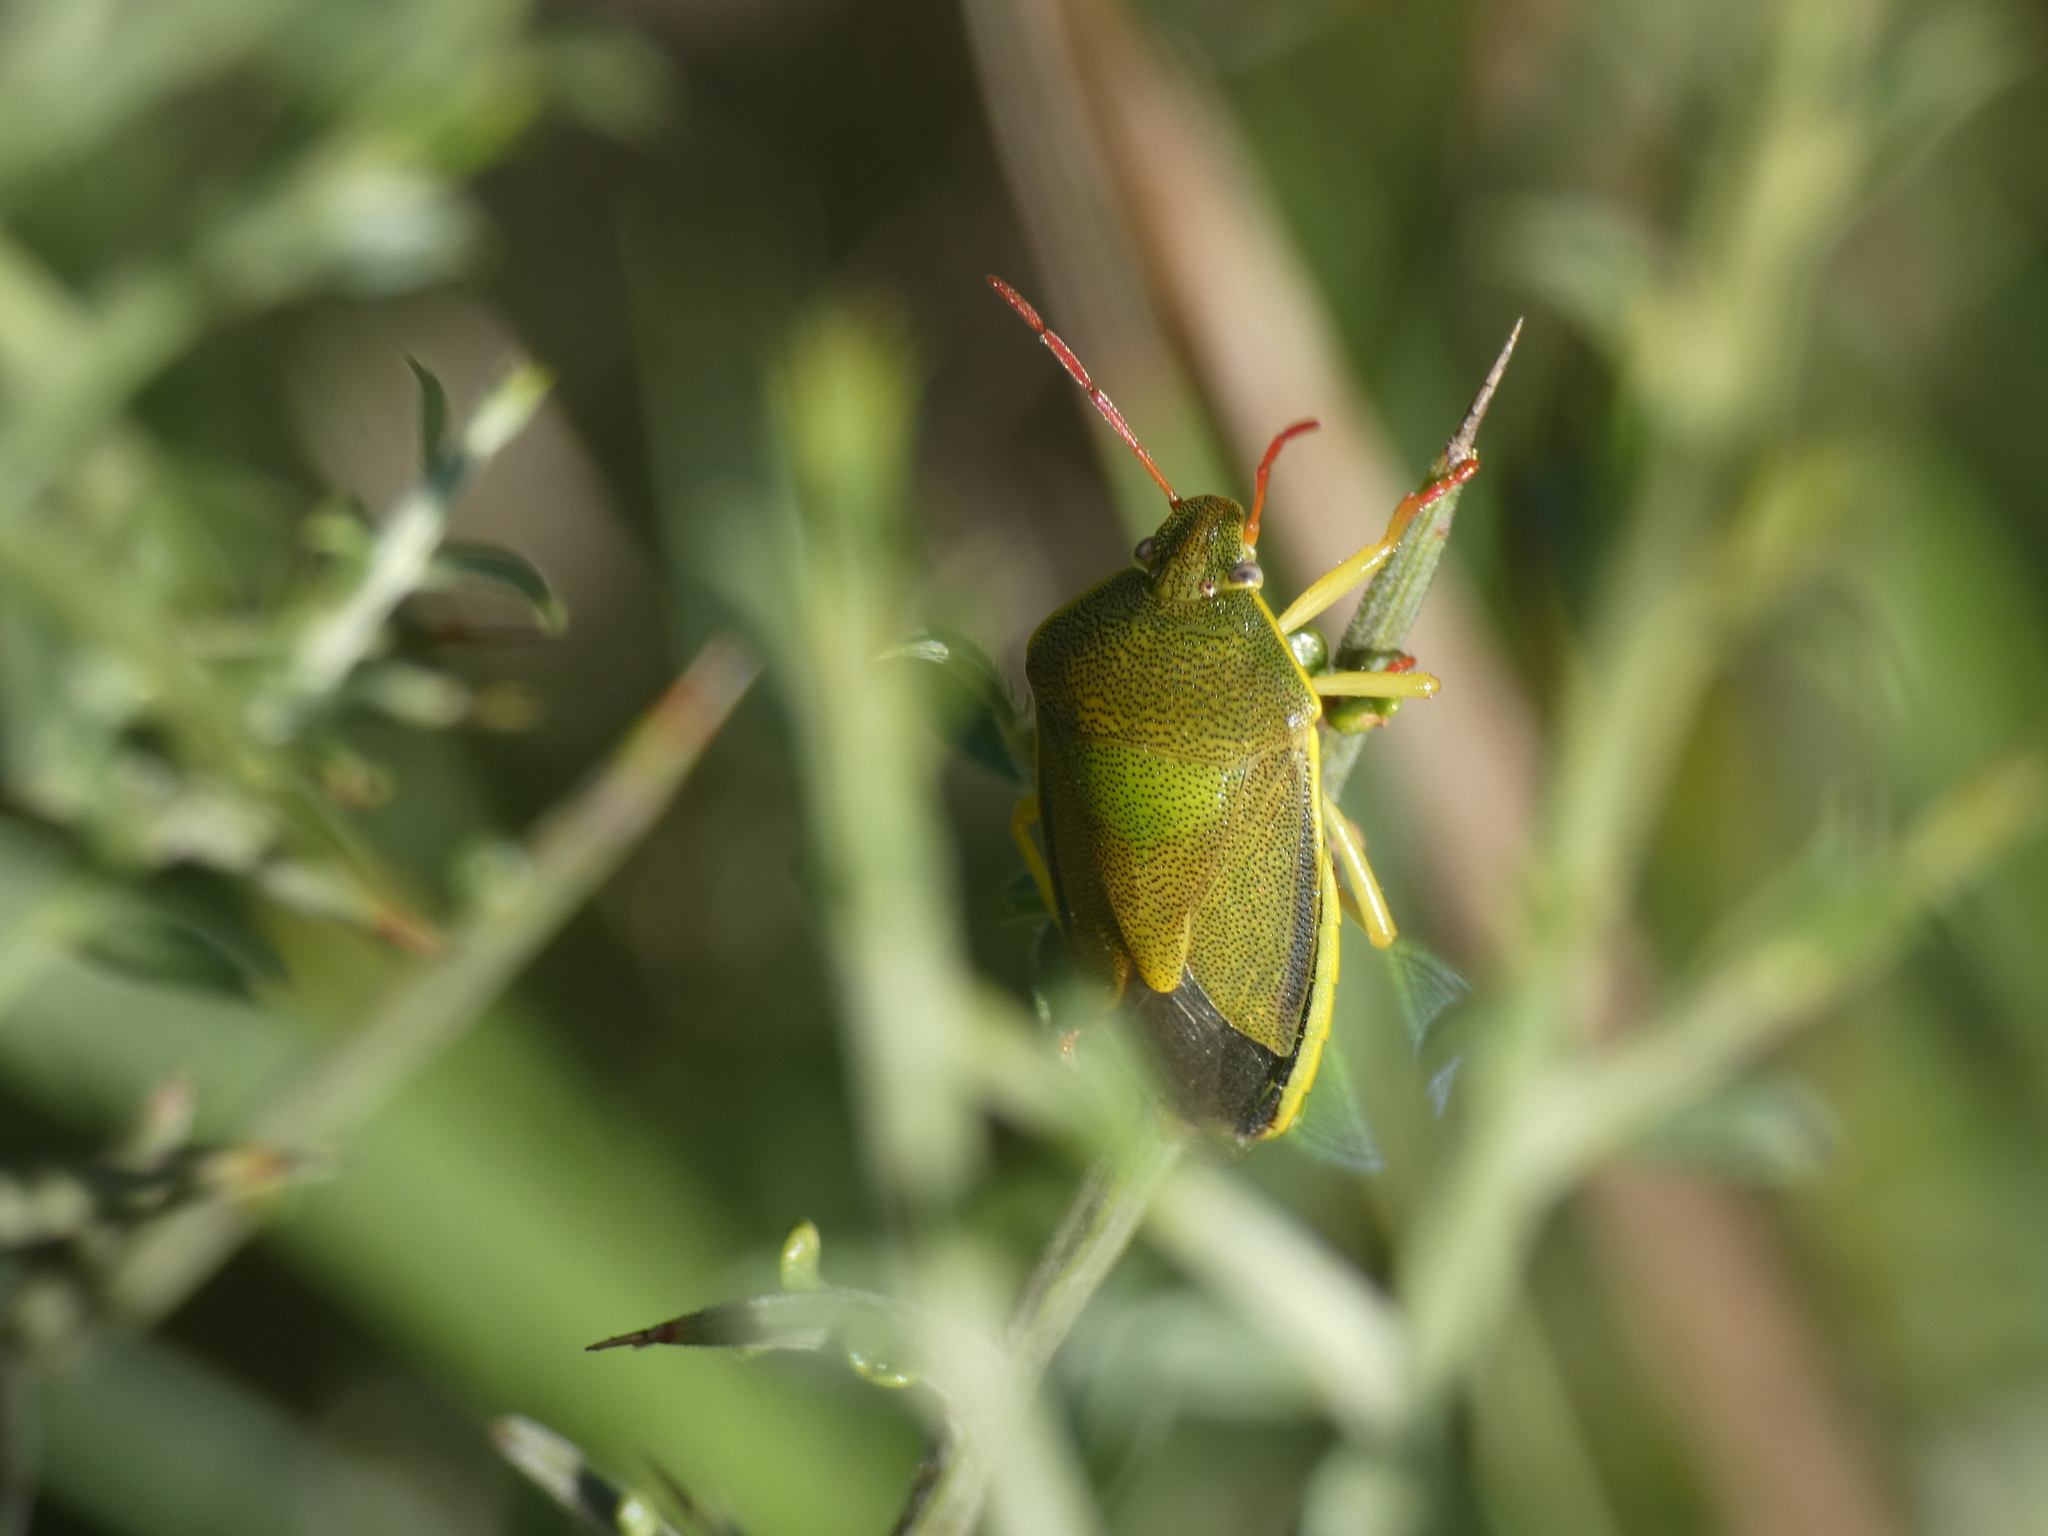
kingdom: Animalia
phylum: Arthropoda
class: Insecta
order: Hemiptera
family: Pentatomidae
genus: Piezodorus
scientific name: Piezodorus lituratus
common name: Stink bug
